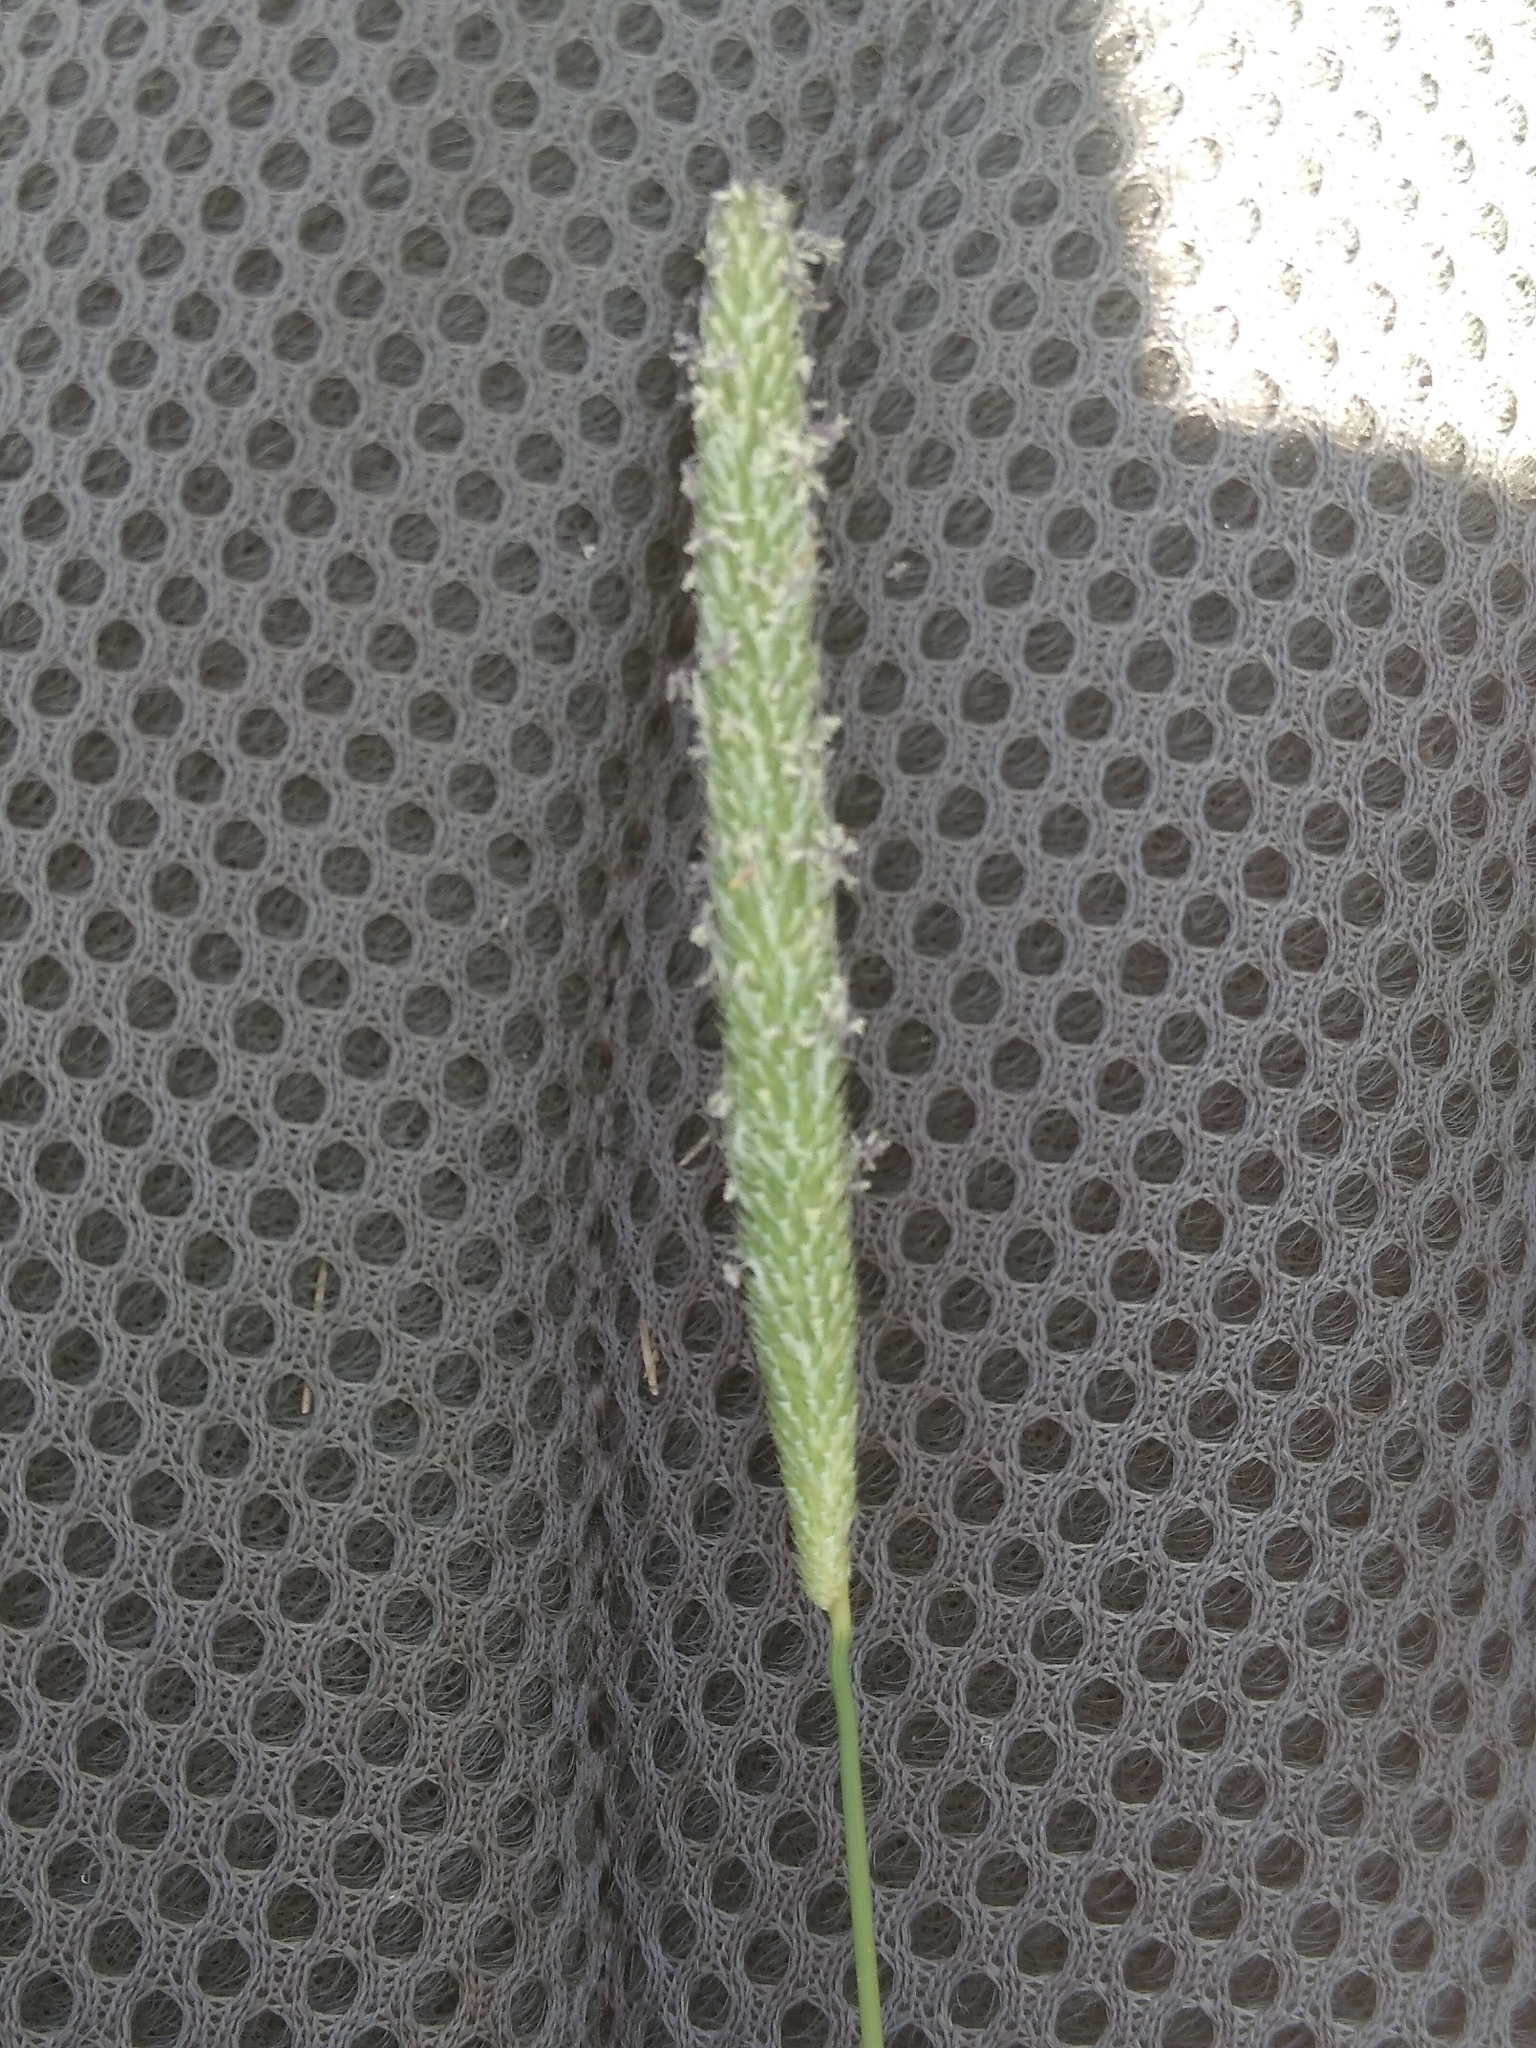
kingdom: Plantae
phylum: Tracheophyta
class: Liliopsida
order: Poales
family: Poaceae
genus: Phleum
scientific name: Phleum pratense
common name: Timothy grass
